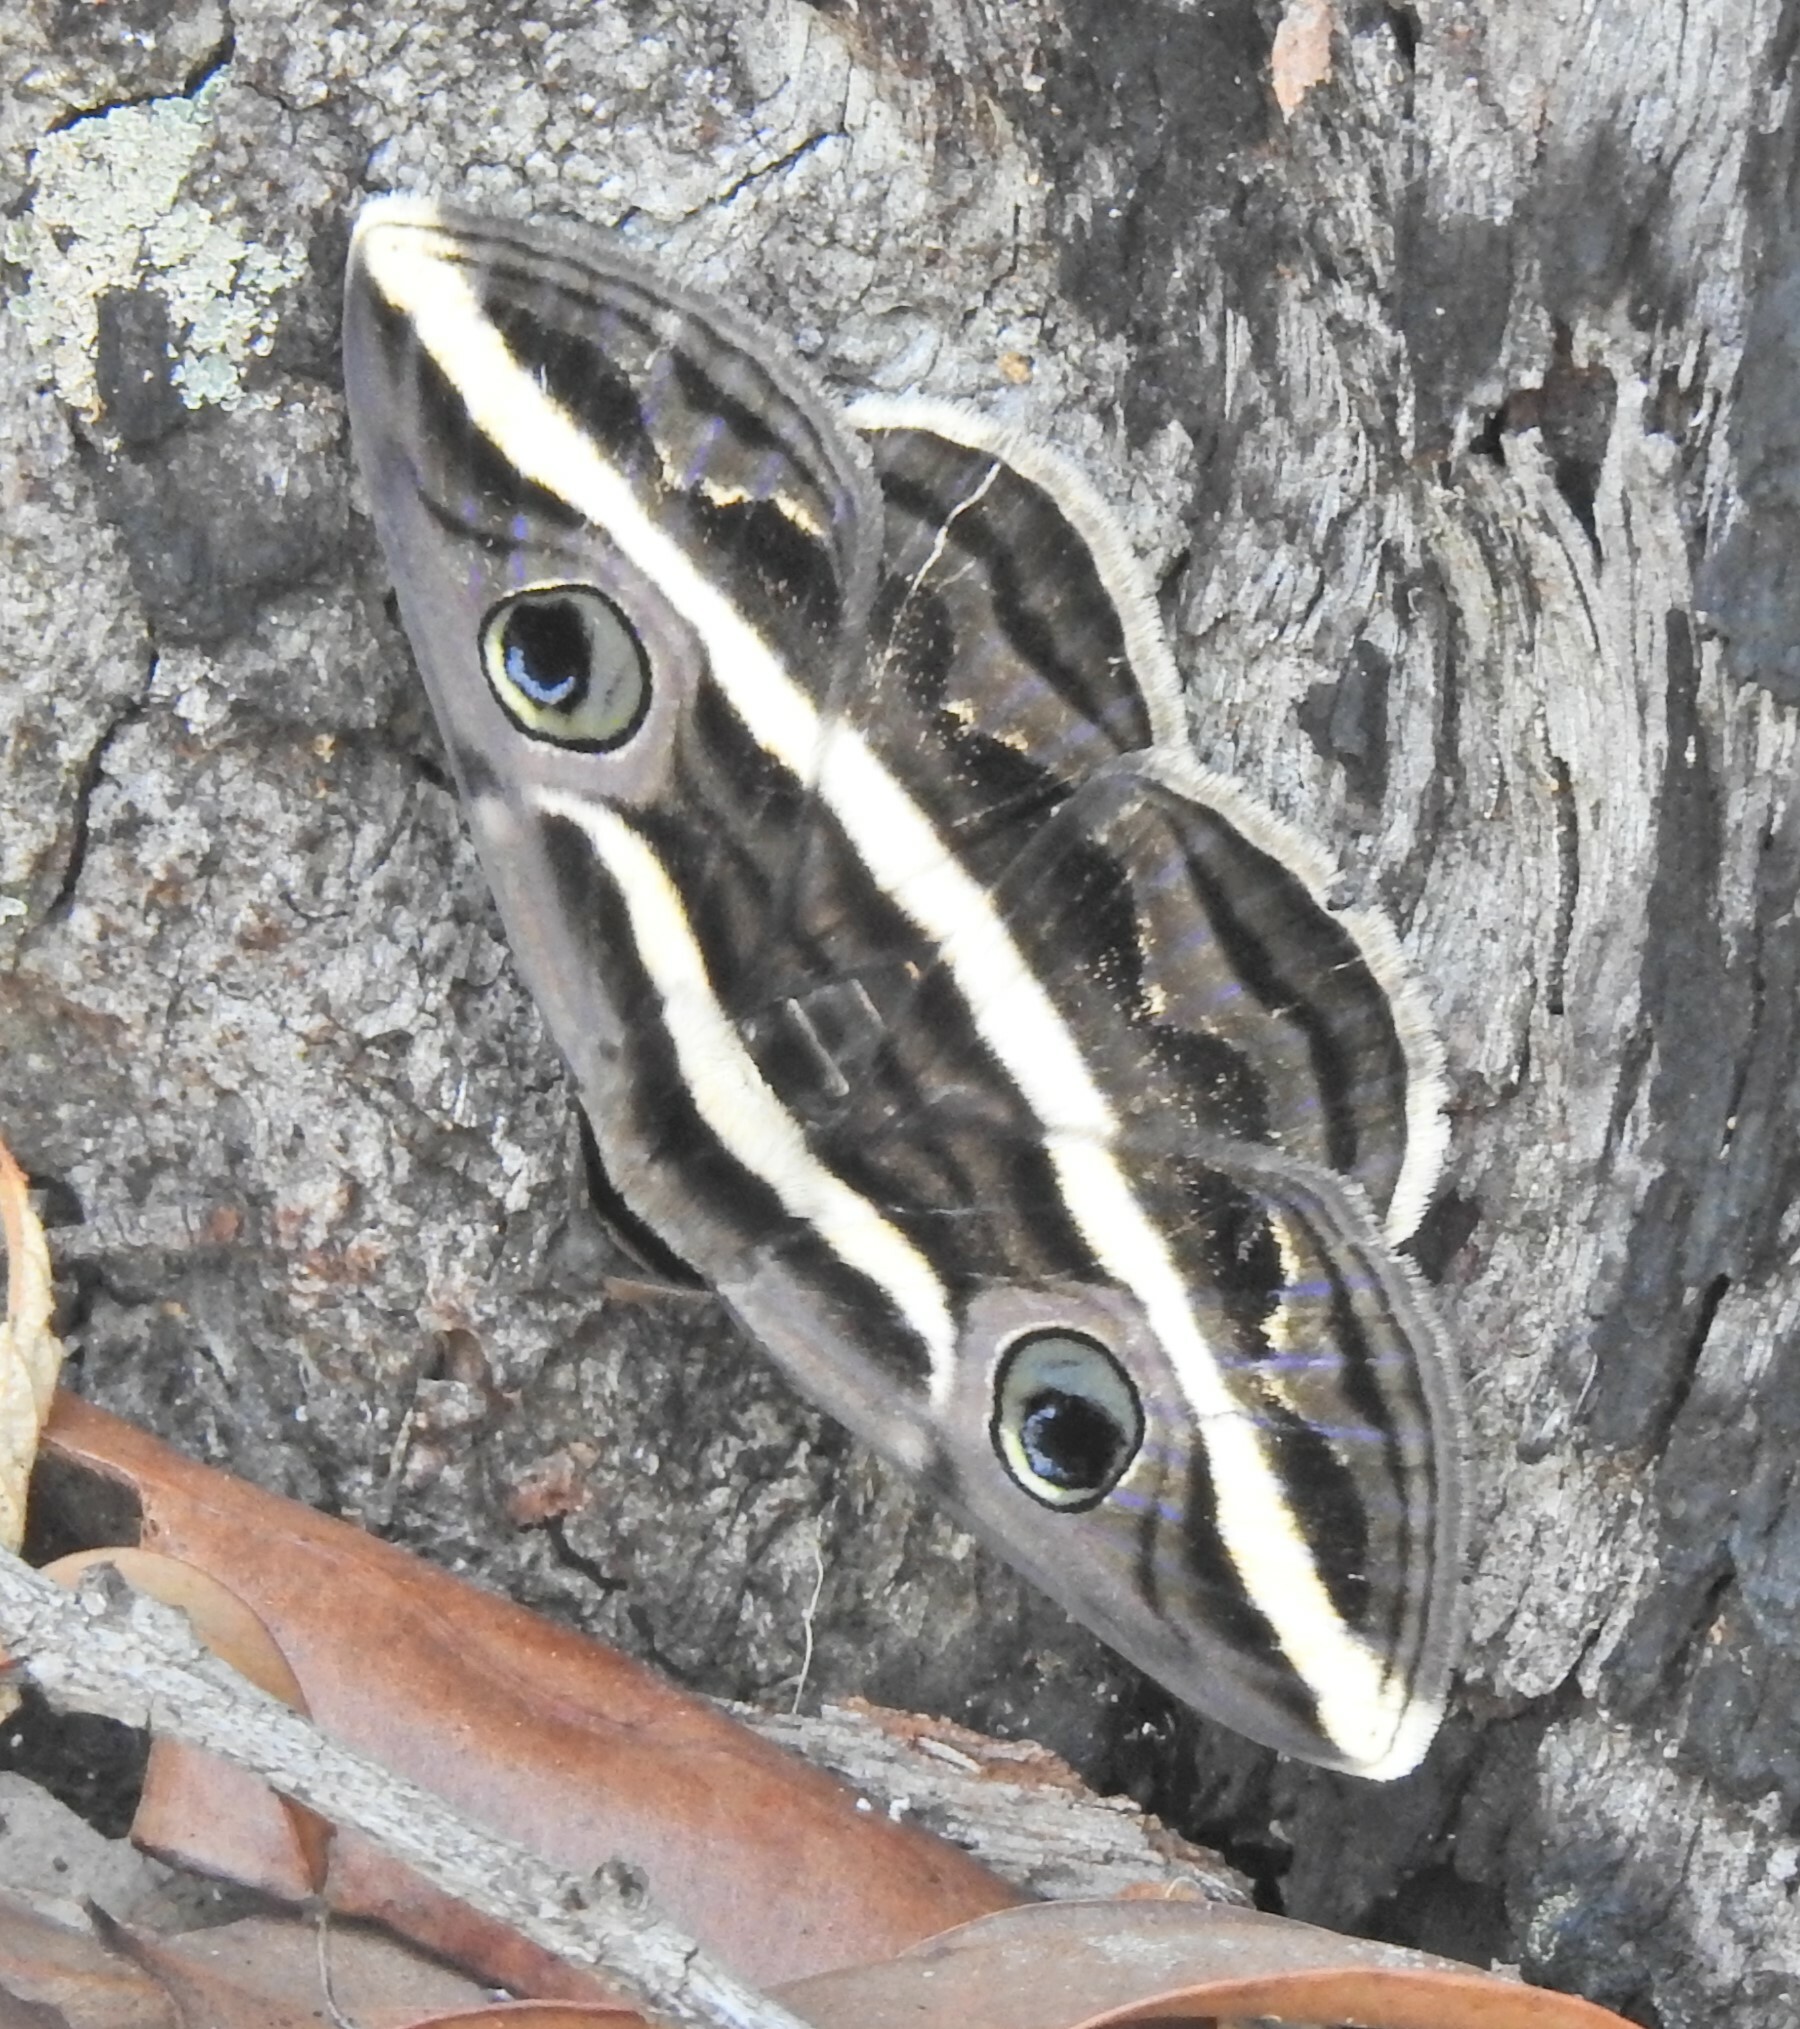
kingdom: Animalia
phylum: Arthropoda
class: Insecta
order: Lepidoptera
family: Erebidae
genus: Donuca
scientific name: Donuca rubropicta
